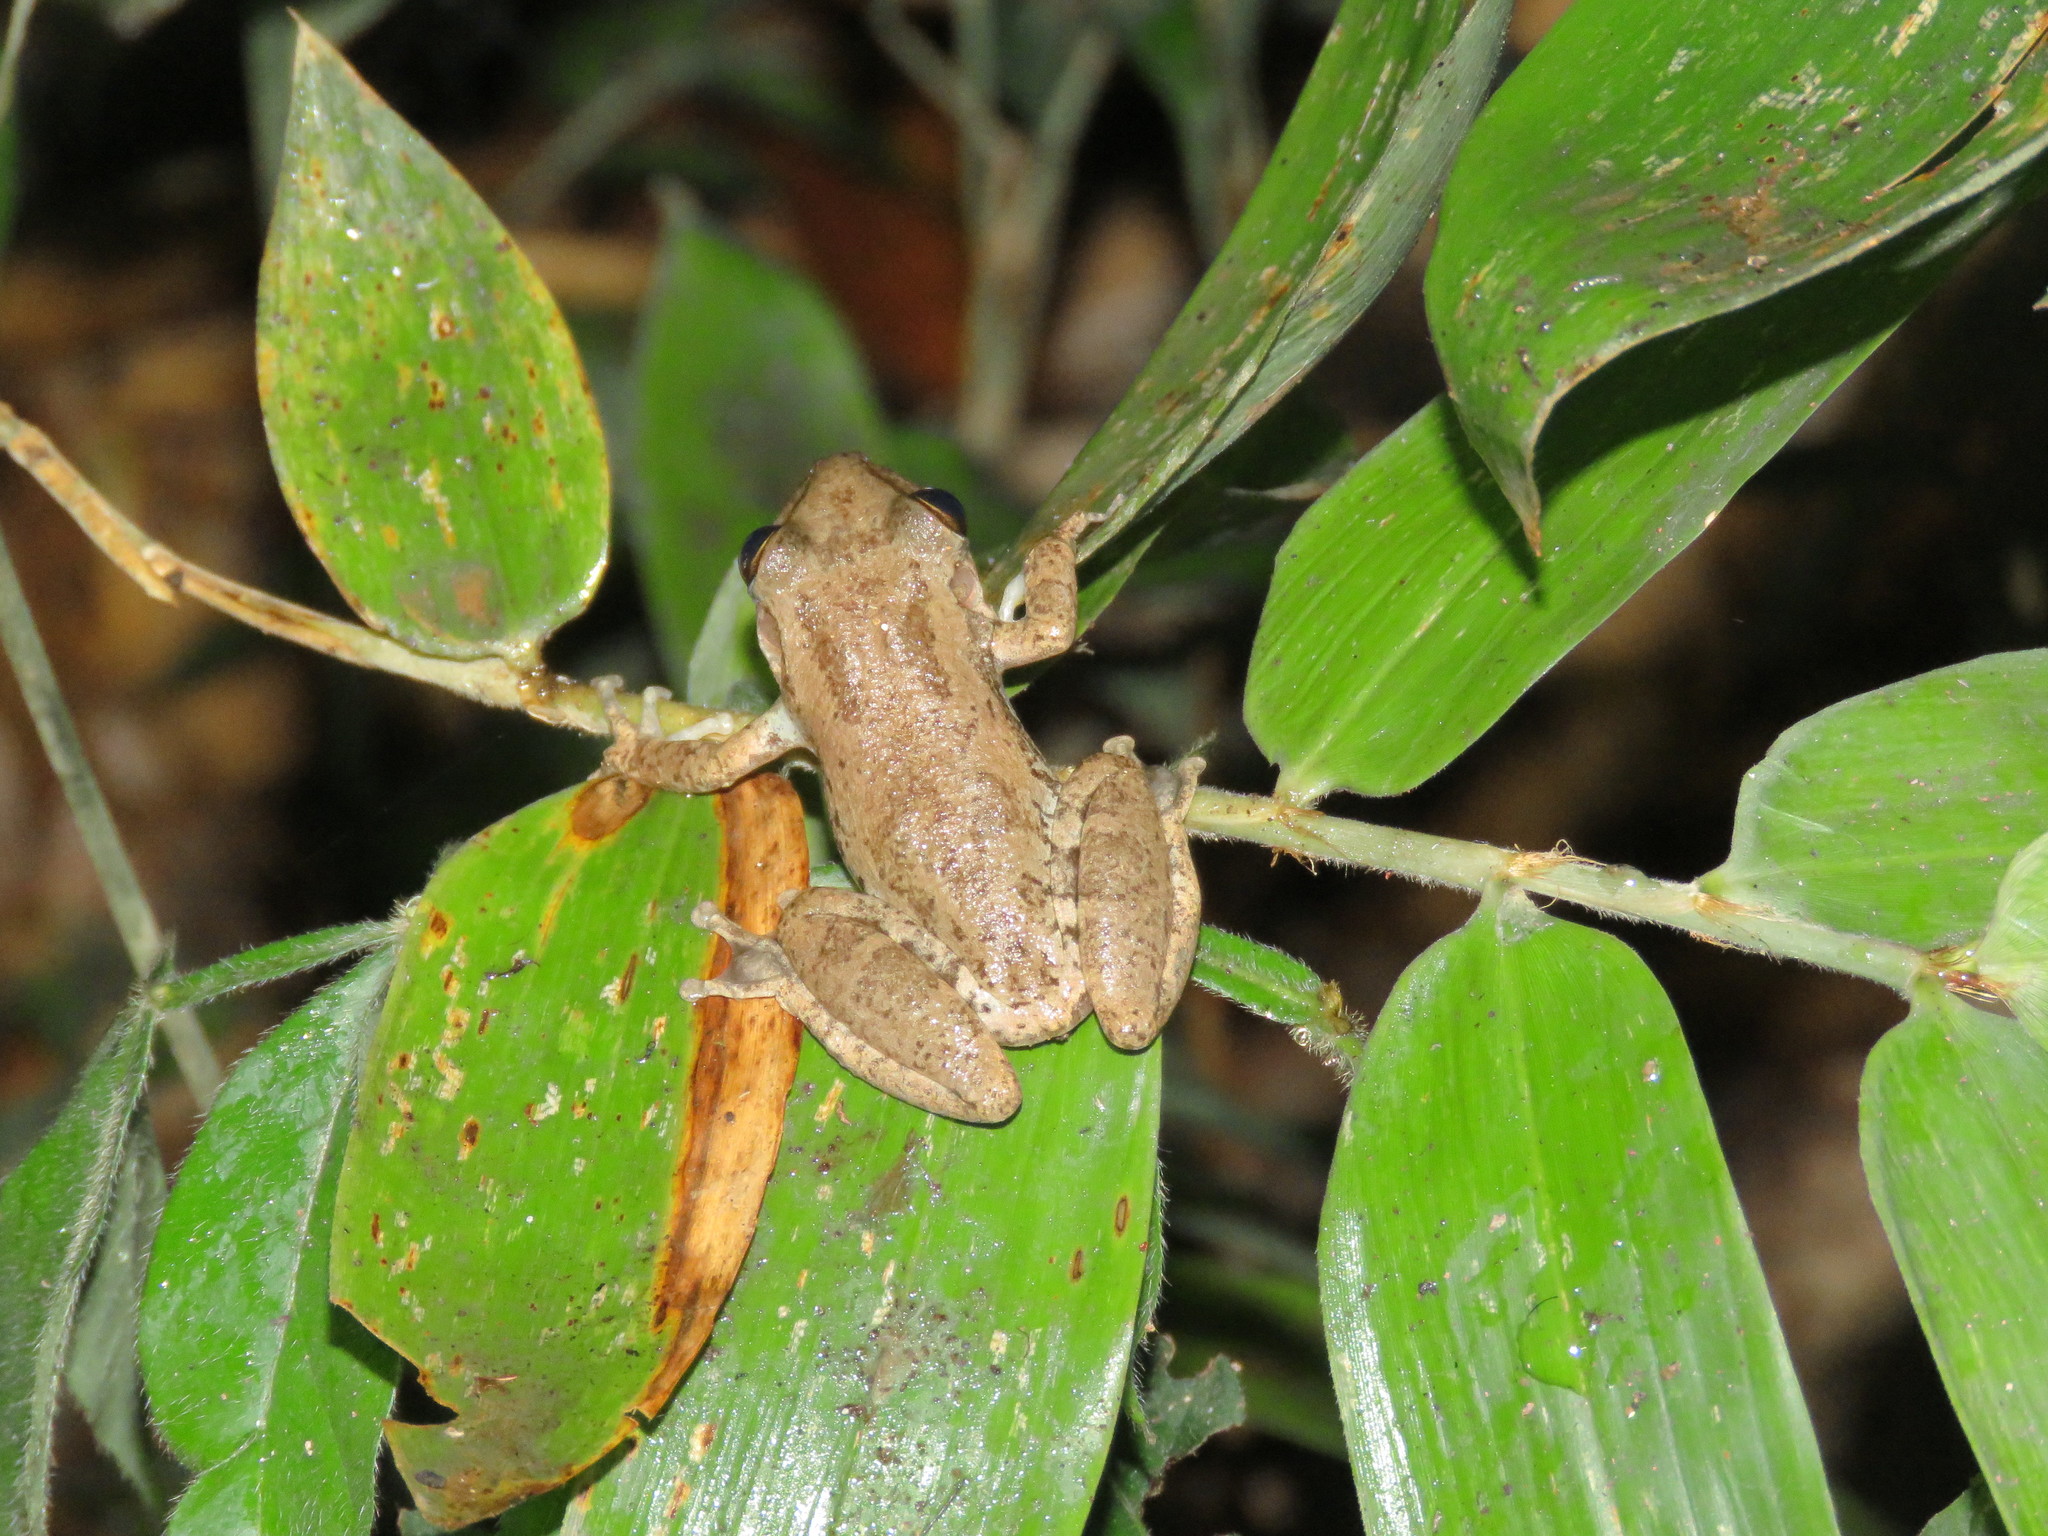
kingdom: Animalia
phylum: Chordata
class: Amphibia
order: Anura
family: Hylidae
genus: Scinax
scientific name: Scinax ruber
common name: Red snouted treefrog
